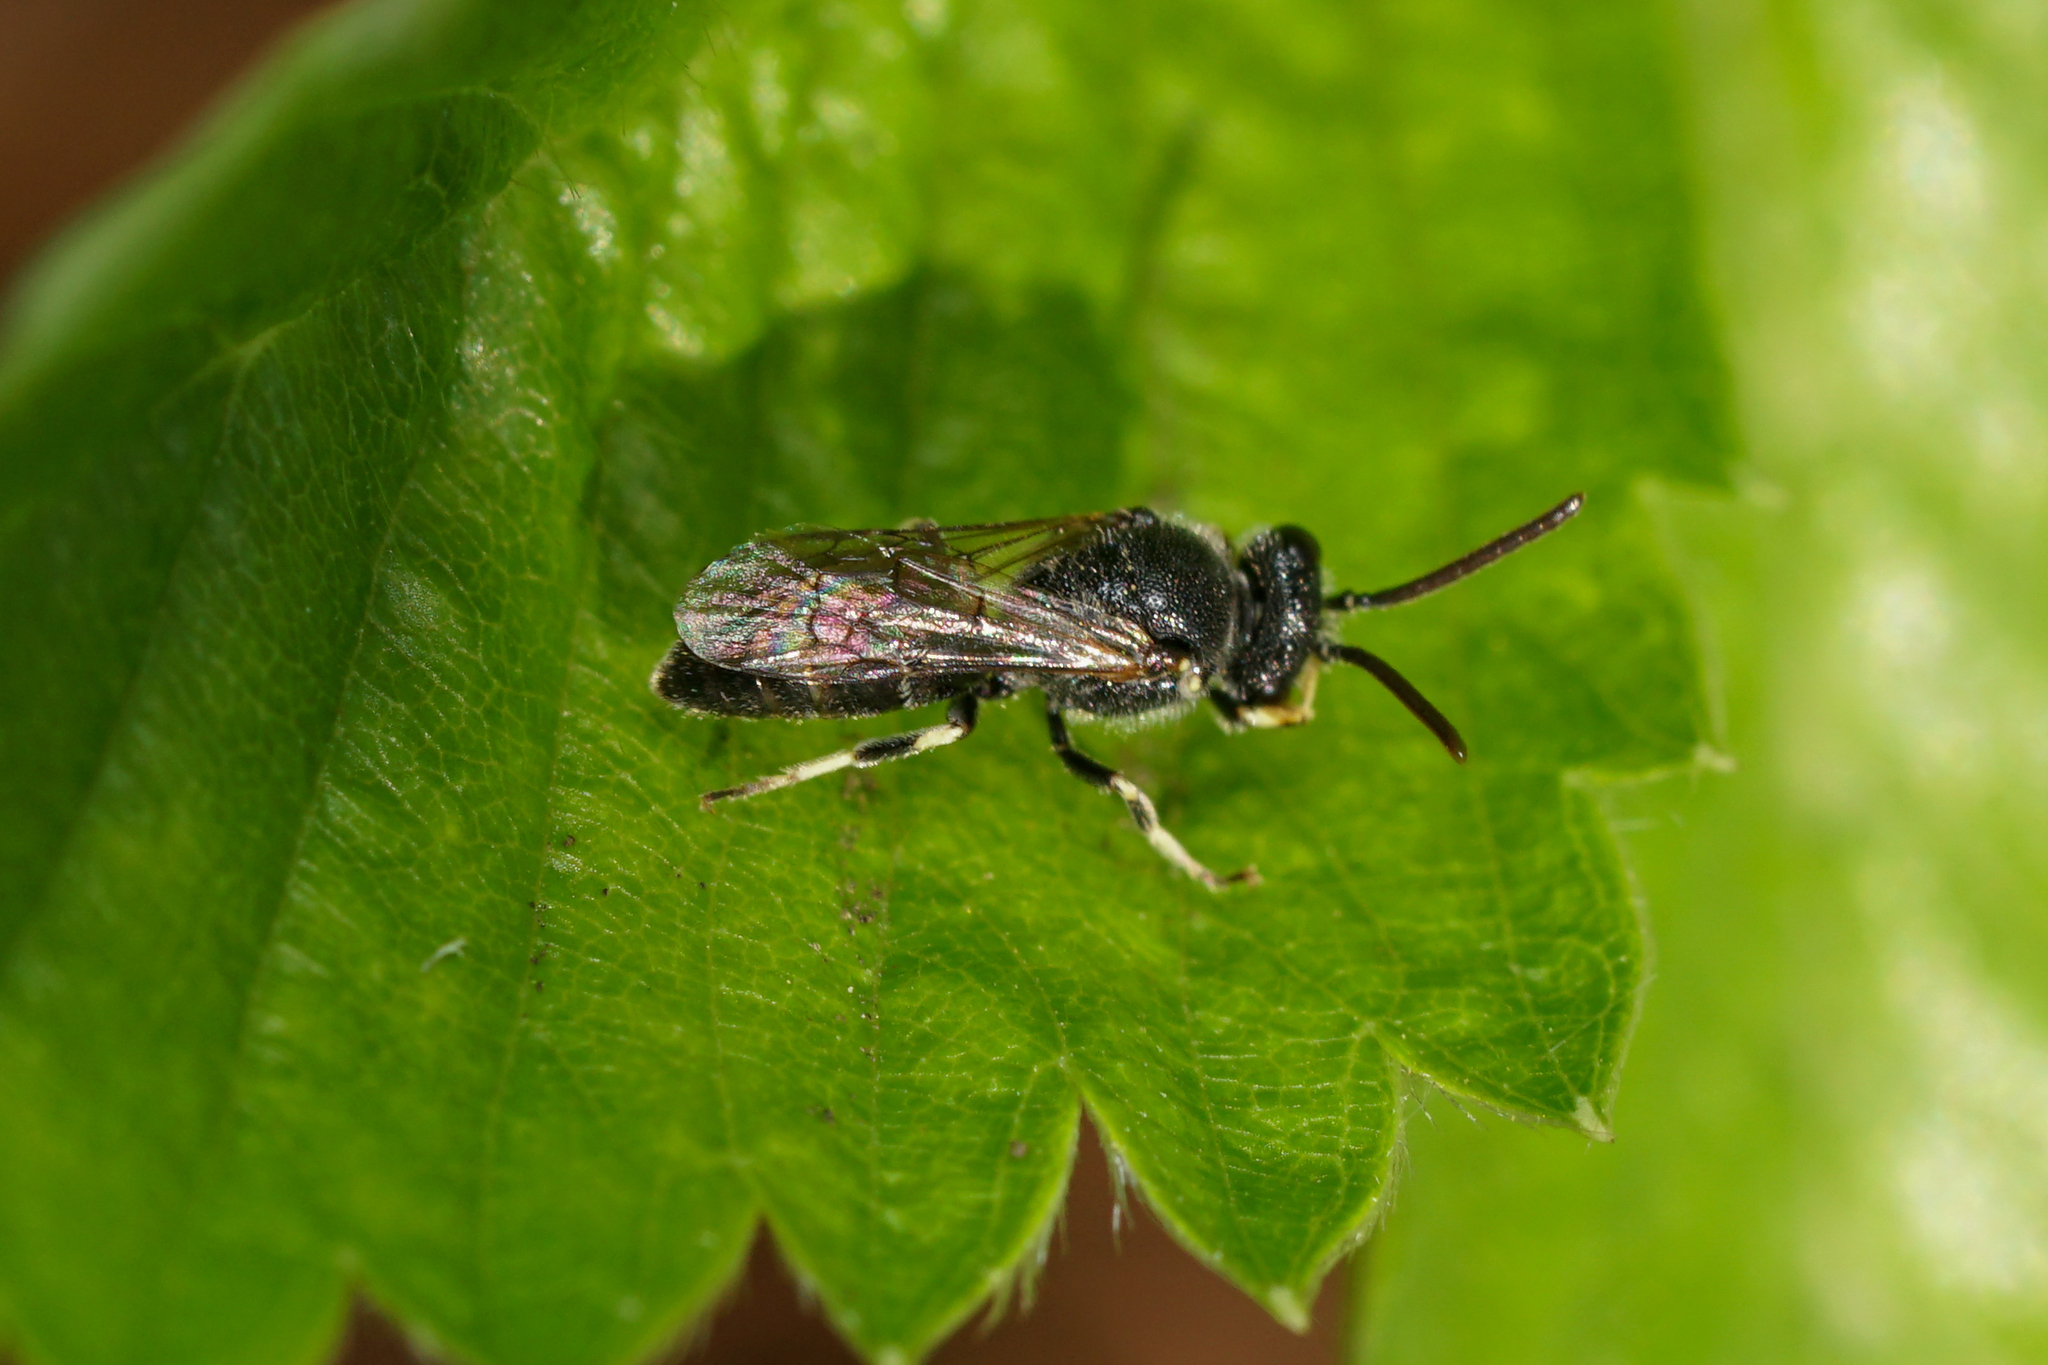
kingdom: Animalia
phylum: Arthropoda
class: Insecta
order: Hymenoptera
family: Colletidae
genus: Hylaeus
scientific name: Hylaeus hyalinatus
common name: Hyaline masked bee
